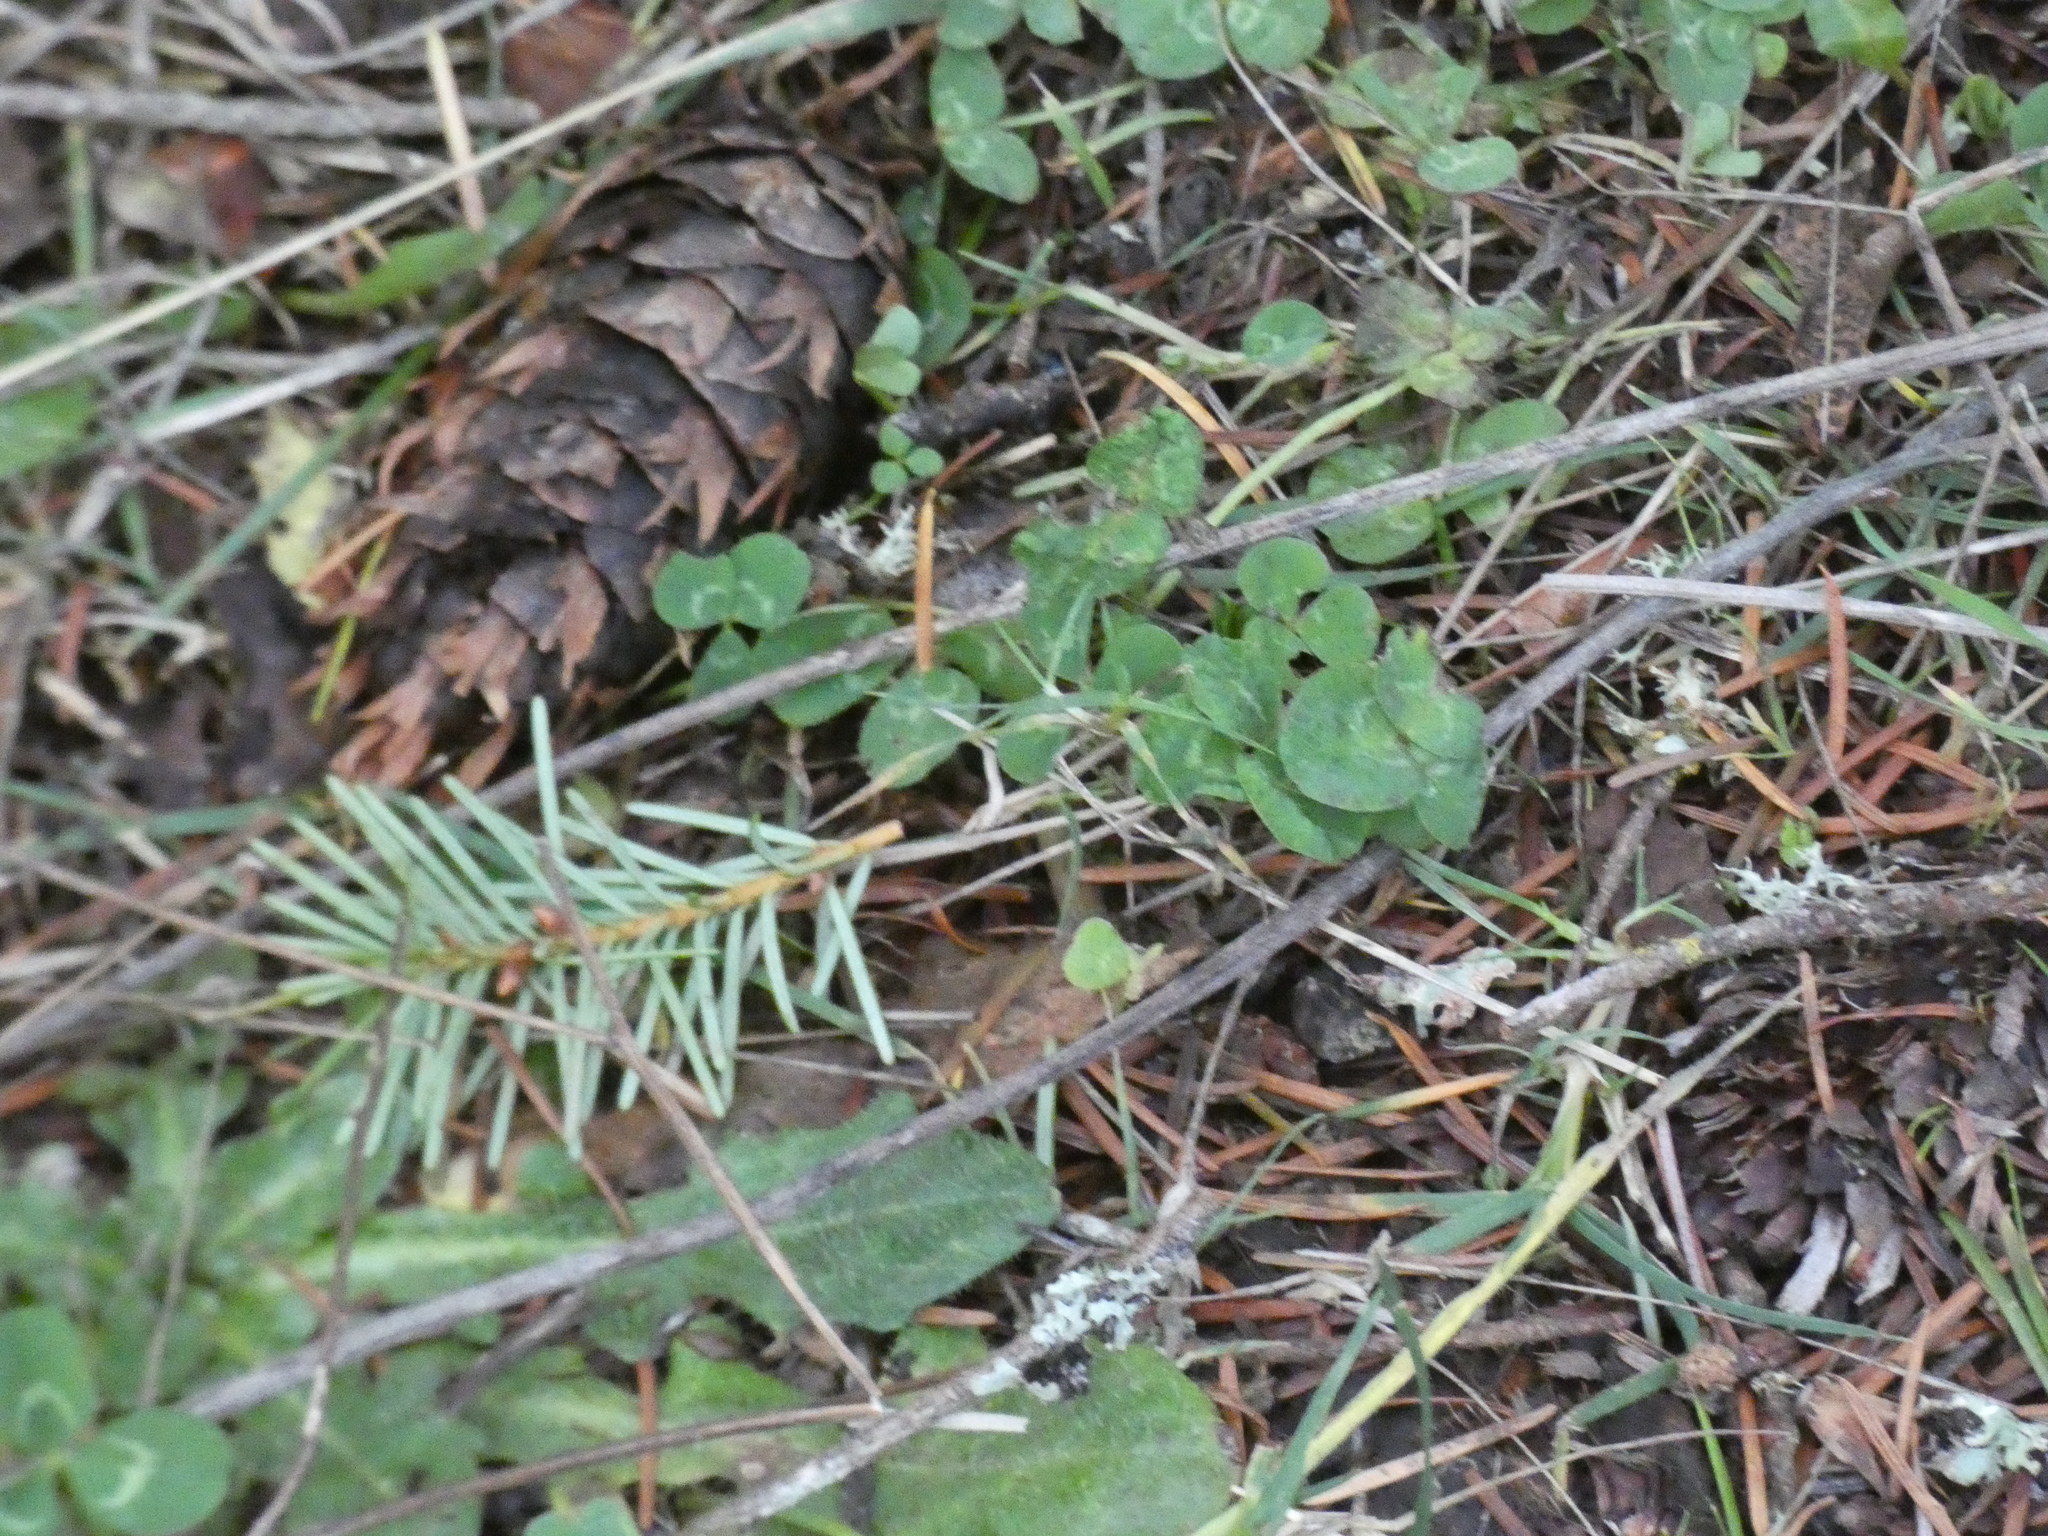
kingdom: Plantae
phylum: Tracheophyta
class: Pinopsida
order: Pinales
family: Pinaceae
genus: Pseudotsuga
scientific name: Pseudotsuga menziesii
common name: Douglas fir
